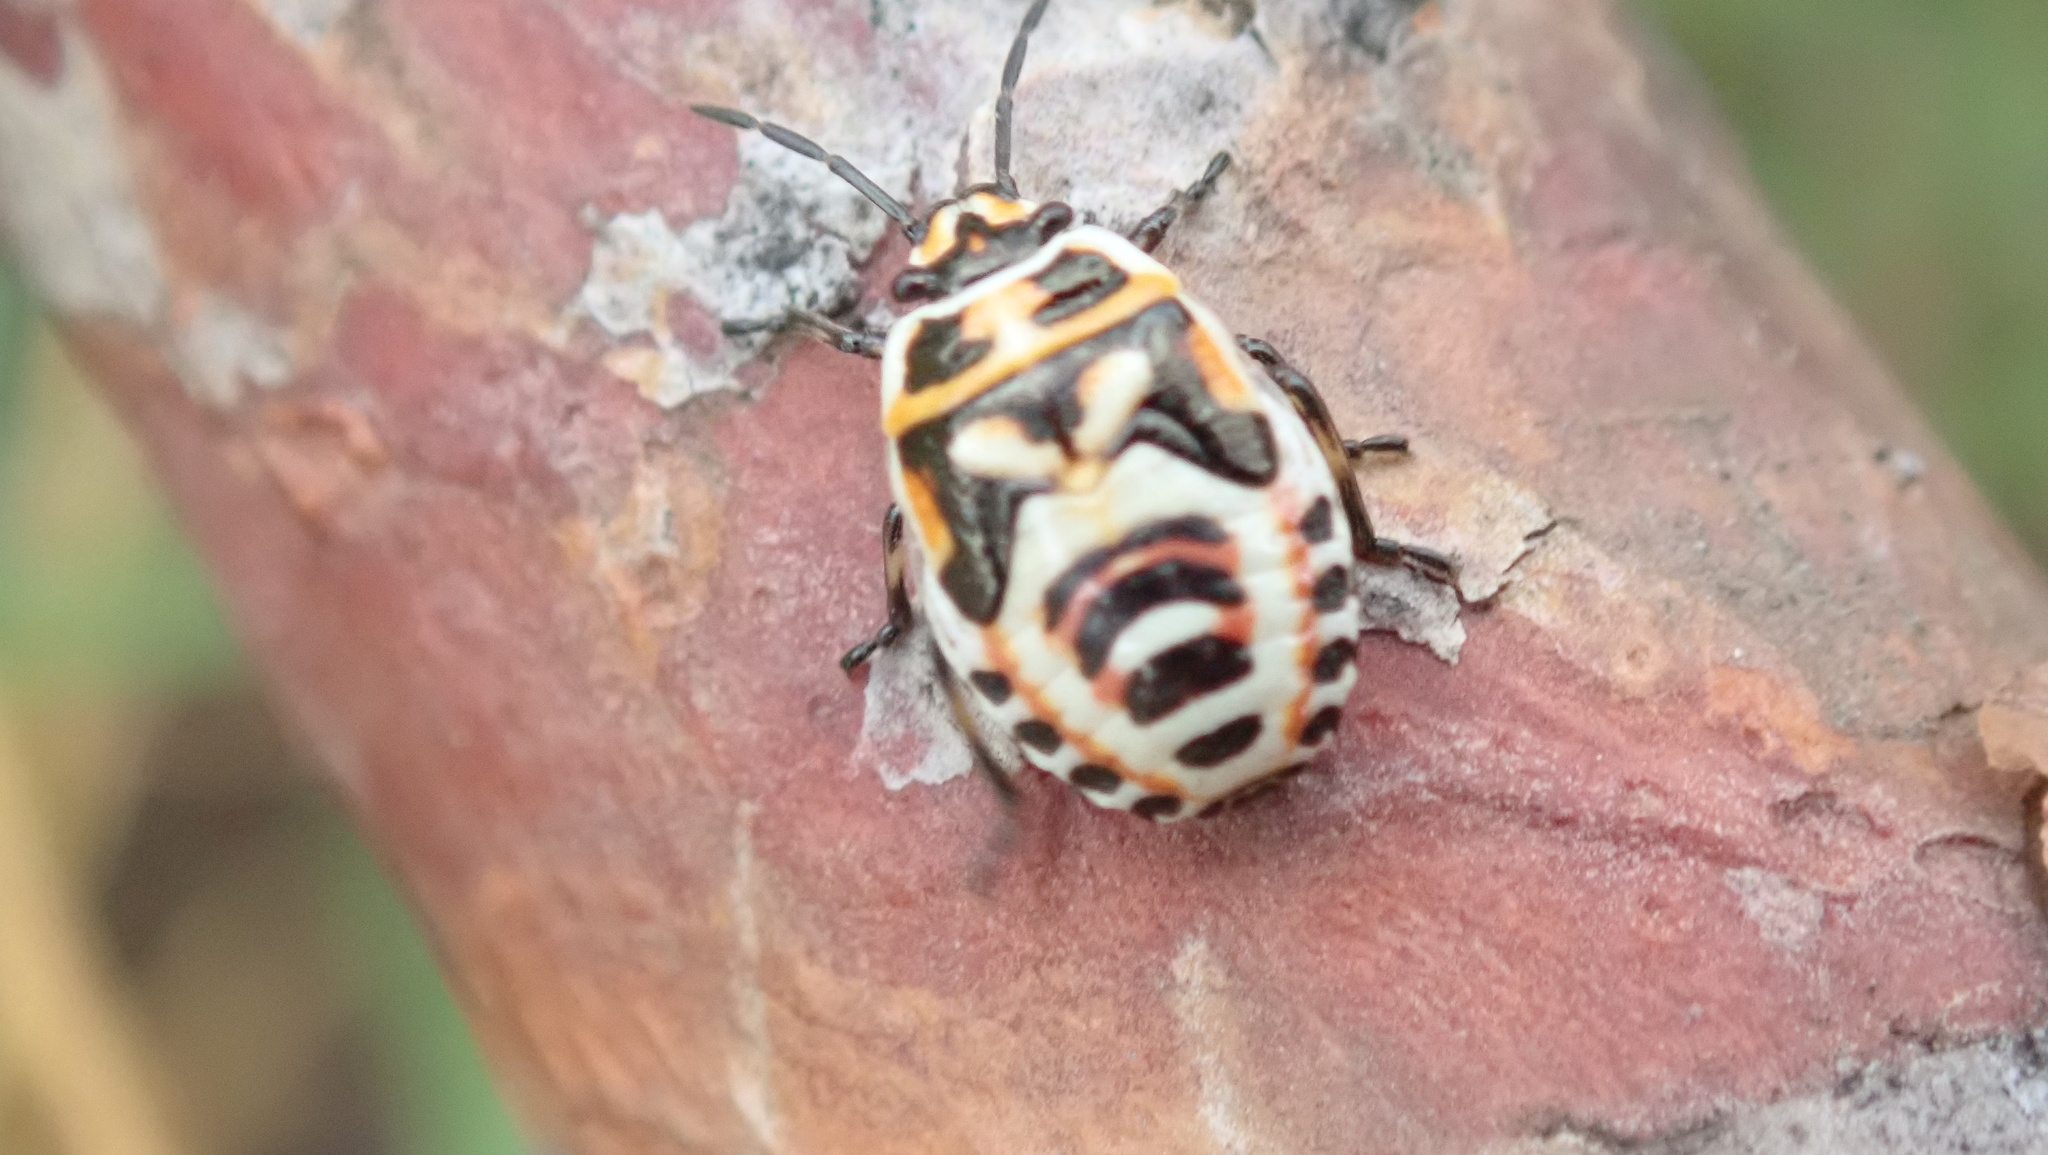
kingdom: Animalia
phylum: Arthropoda
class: Insecta
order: Hemiptera
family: Pentatomidae
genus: Eurydema
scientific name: Eurydema ornata
